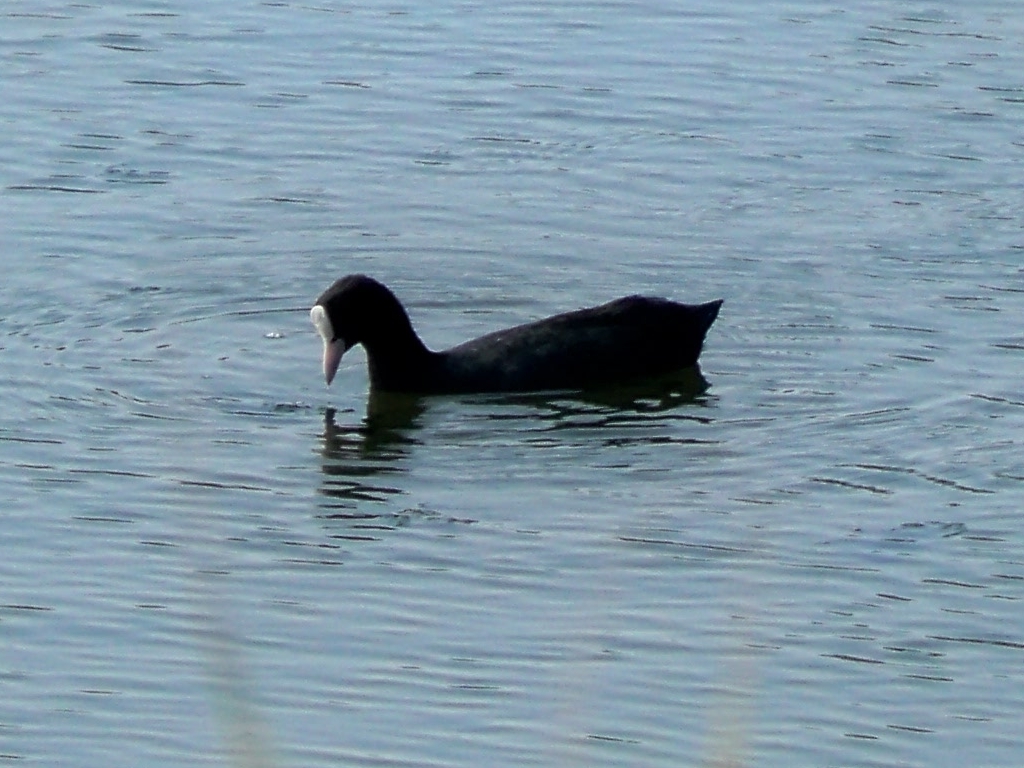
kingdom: Animalia
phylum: Chordata
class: Aves
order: Gruiformes
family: Rallidae
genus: Fulica
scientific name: Fulica atra
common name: Eurasian coot
